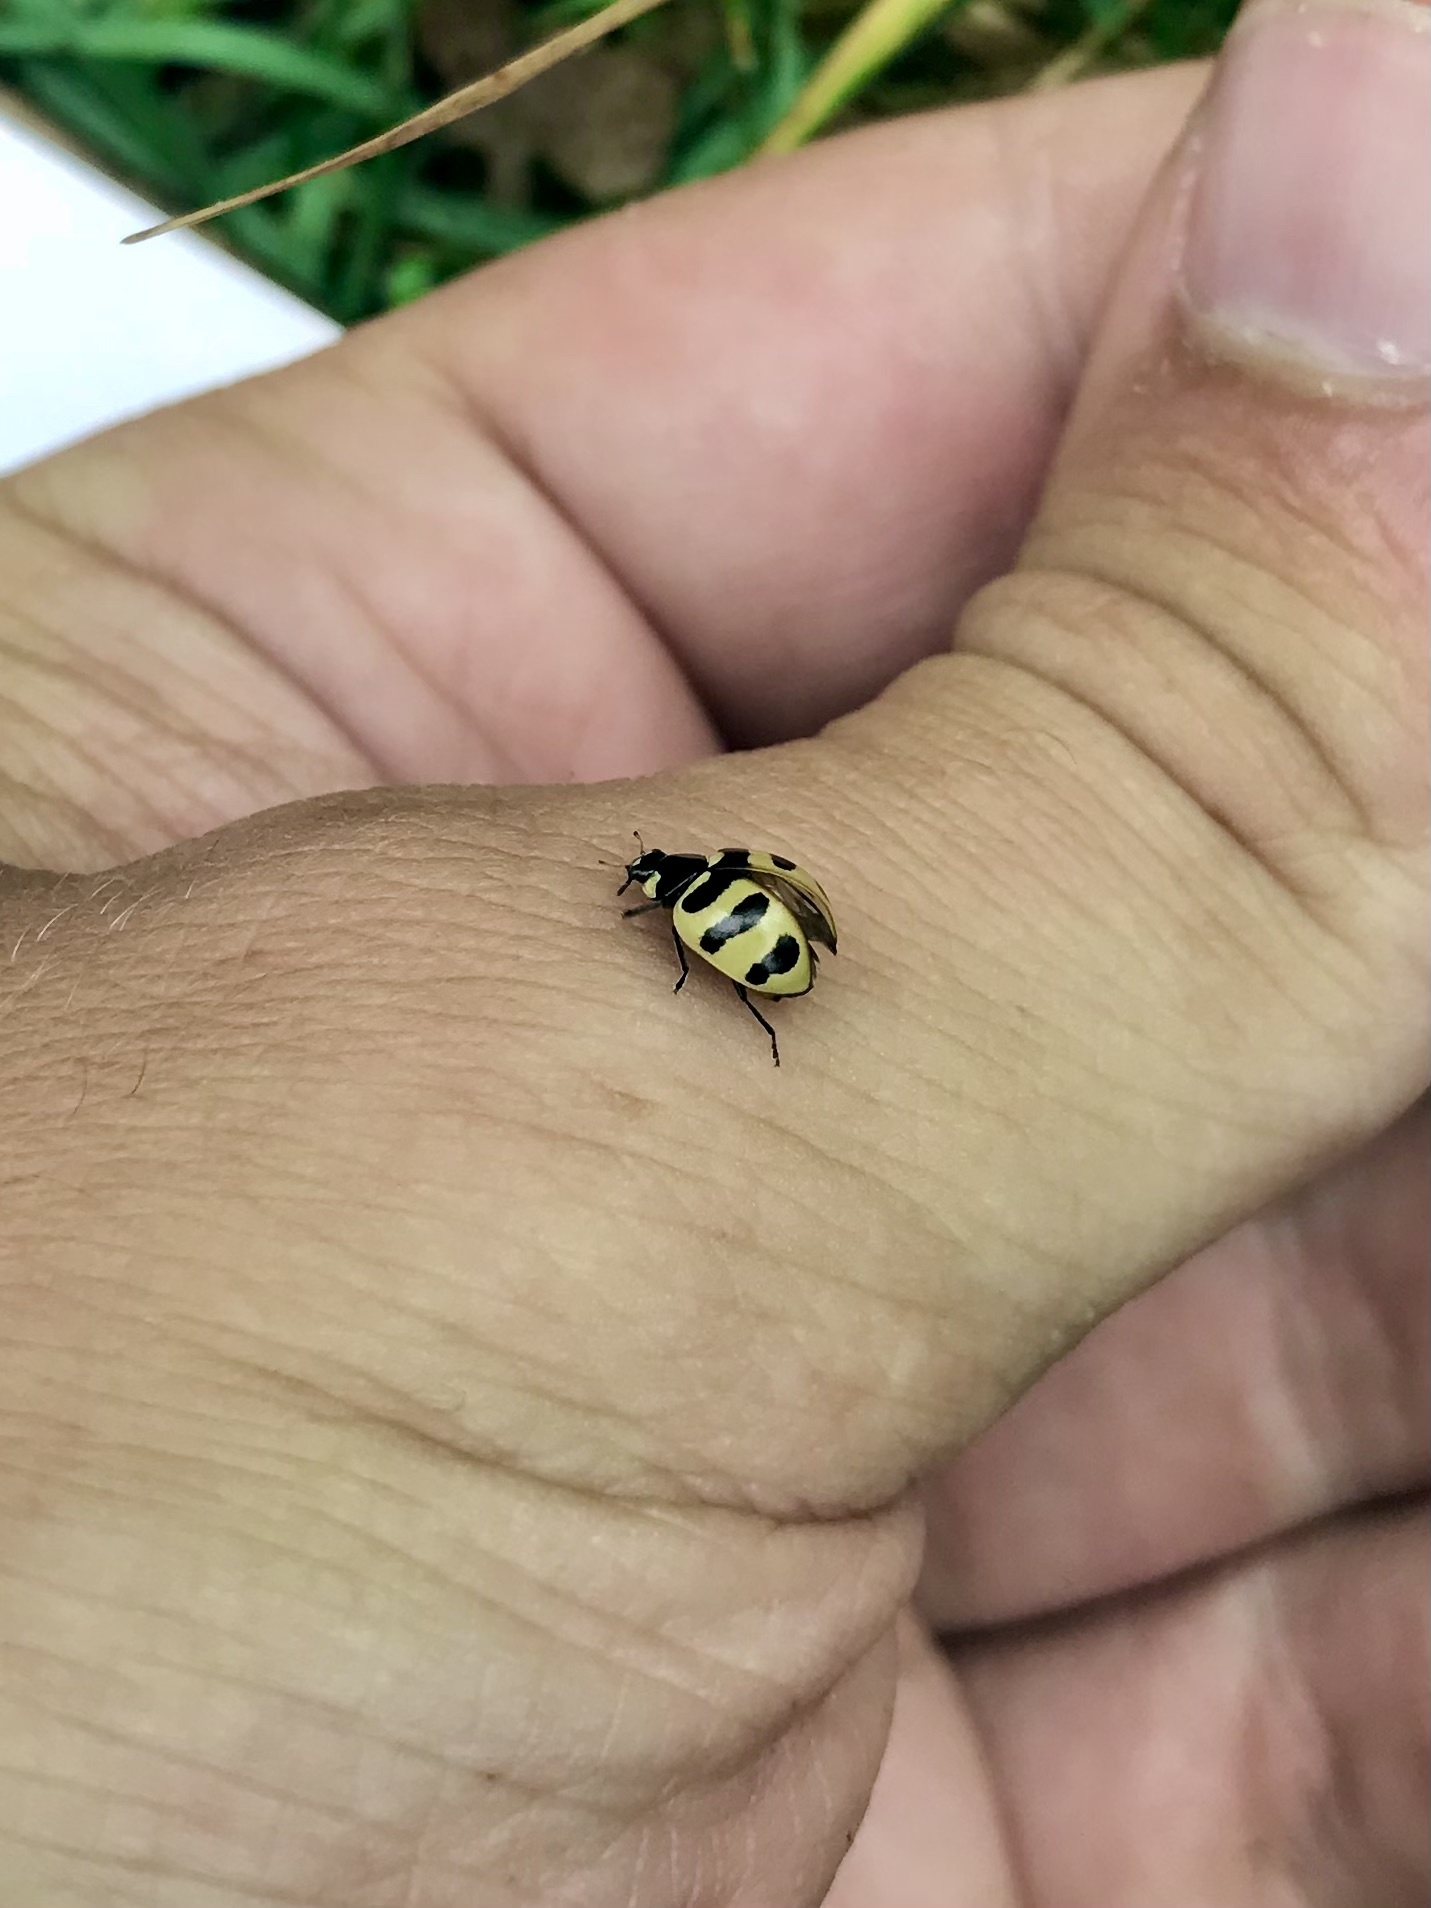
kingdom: Animalia
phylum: Arthropoda
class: Insecta
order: Coleoptera
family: Coccinellidae
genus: Coccinella
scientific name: Coccinella trifasciata
